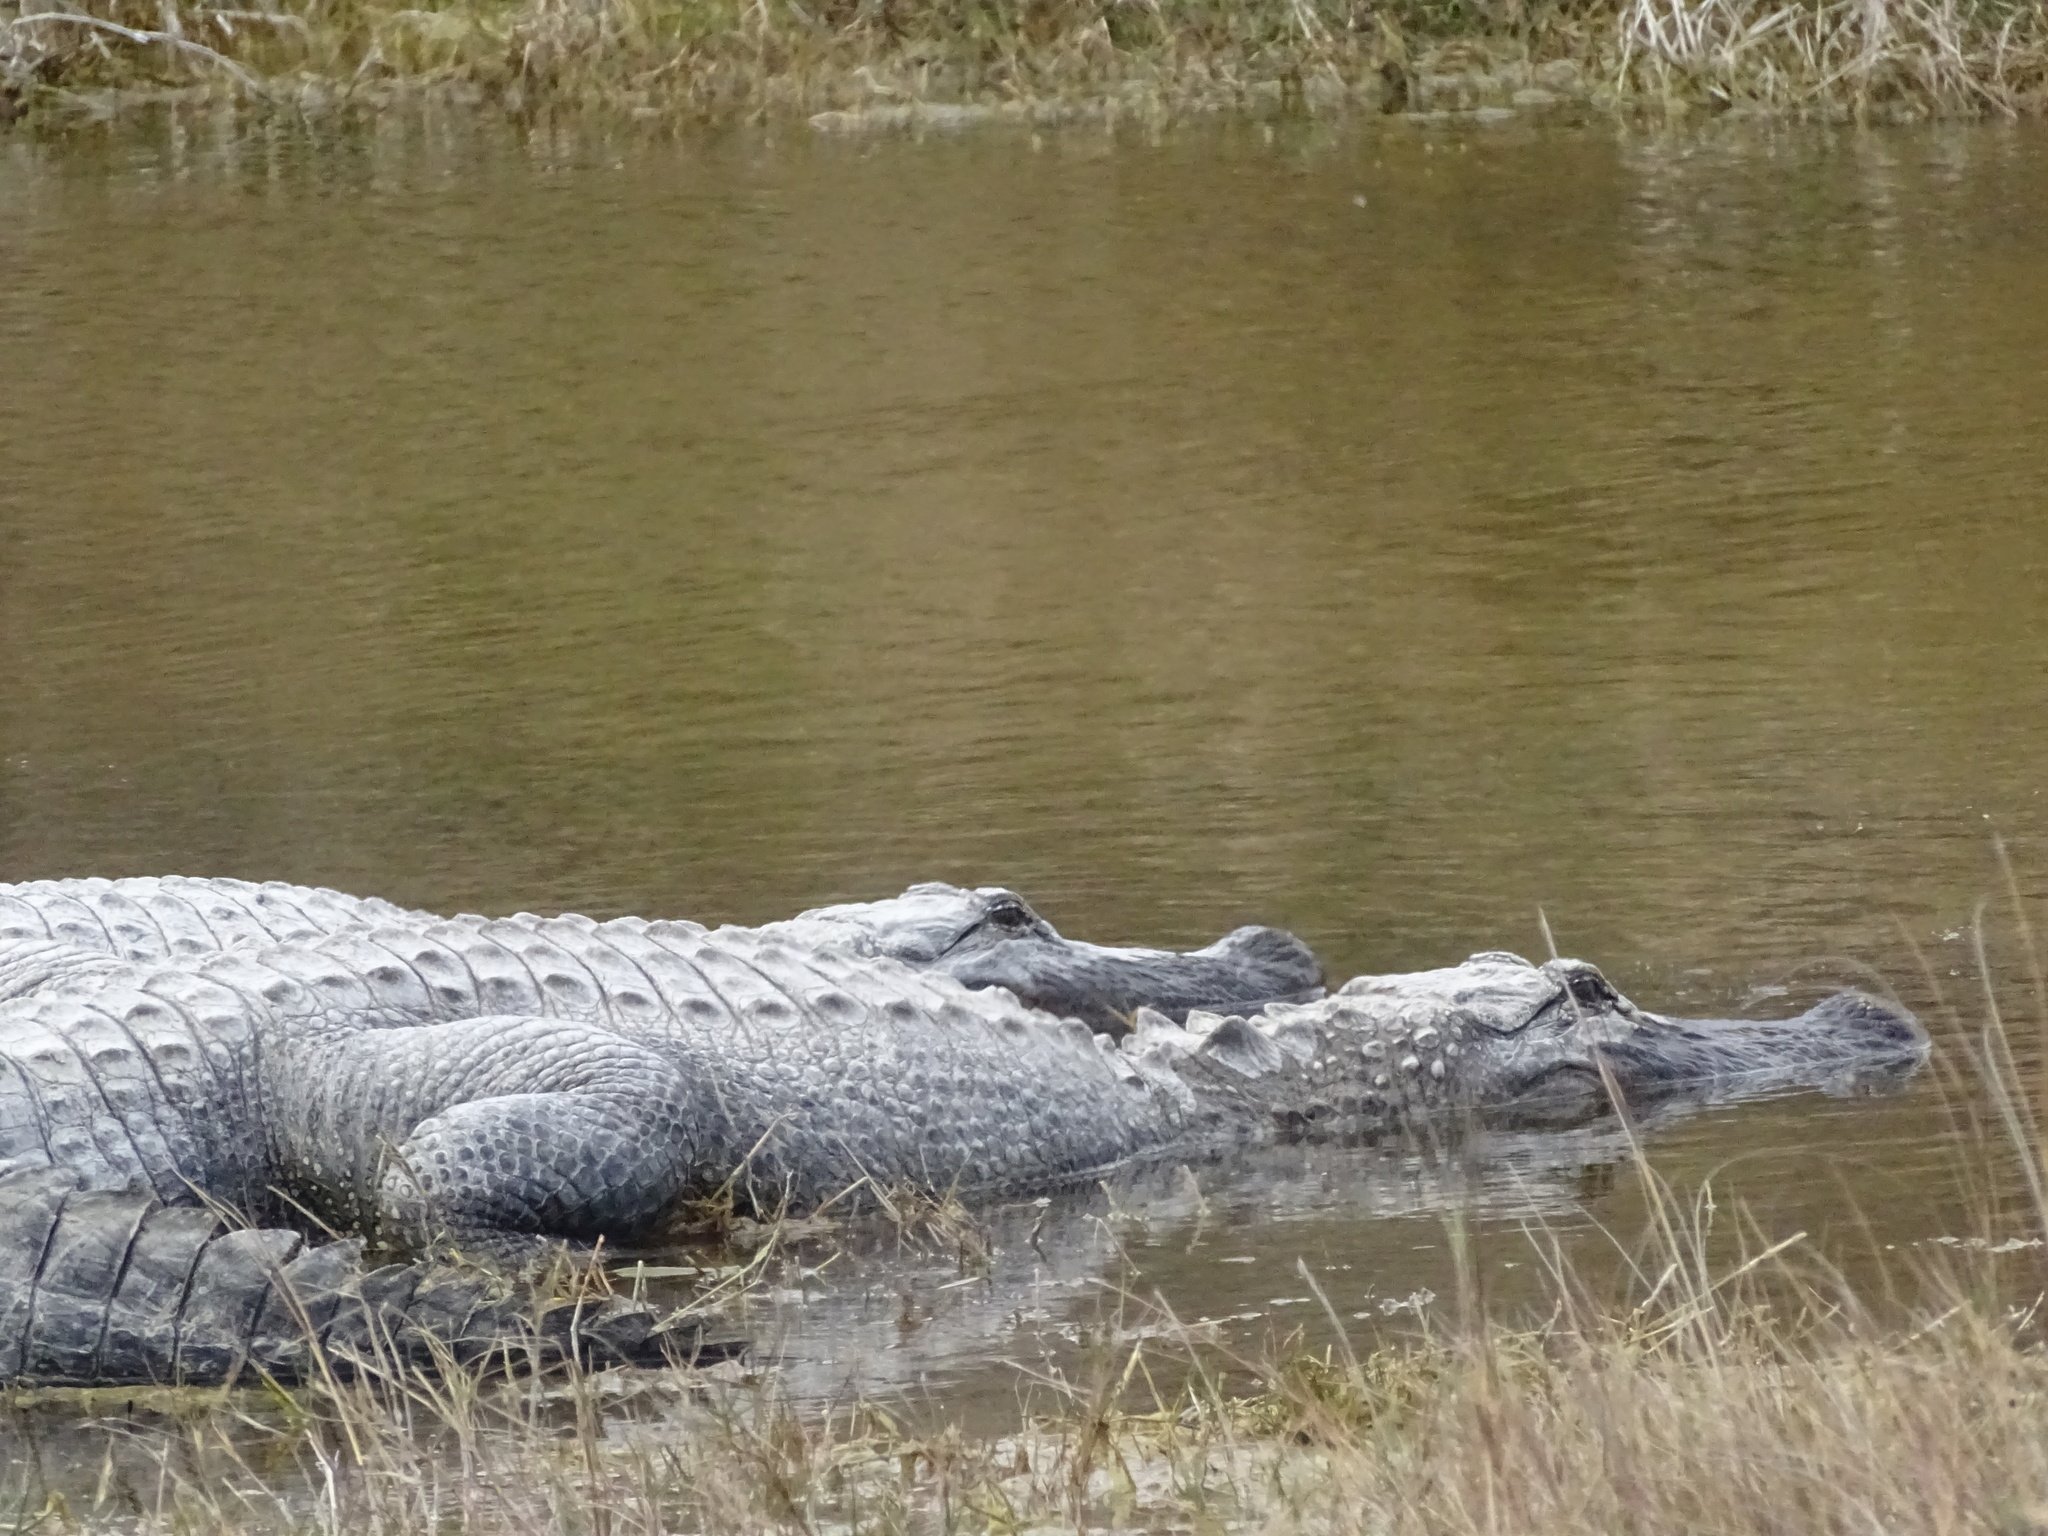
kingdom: Animalia
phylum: Chordata
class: Crocodylia
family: Alligatoridae
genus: Alligator
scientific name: Alligator mississippiensis
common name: American alligator
